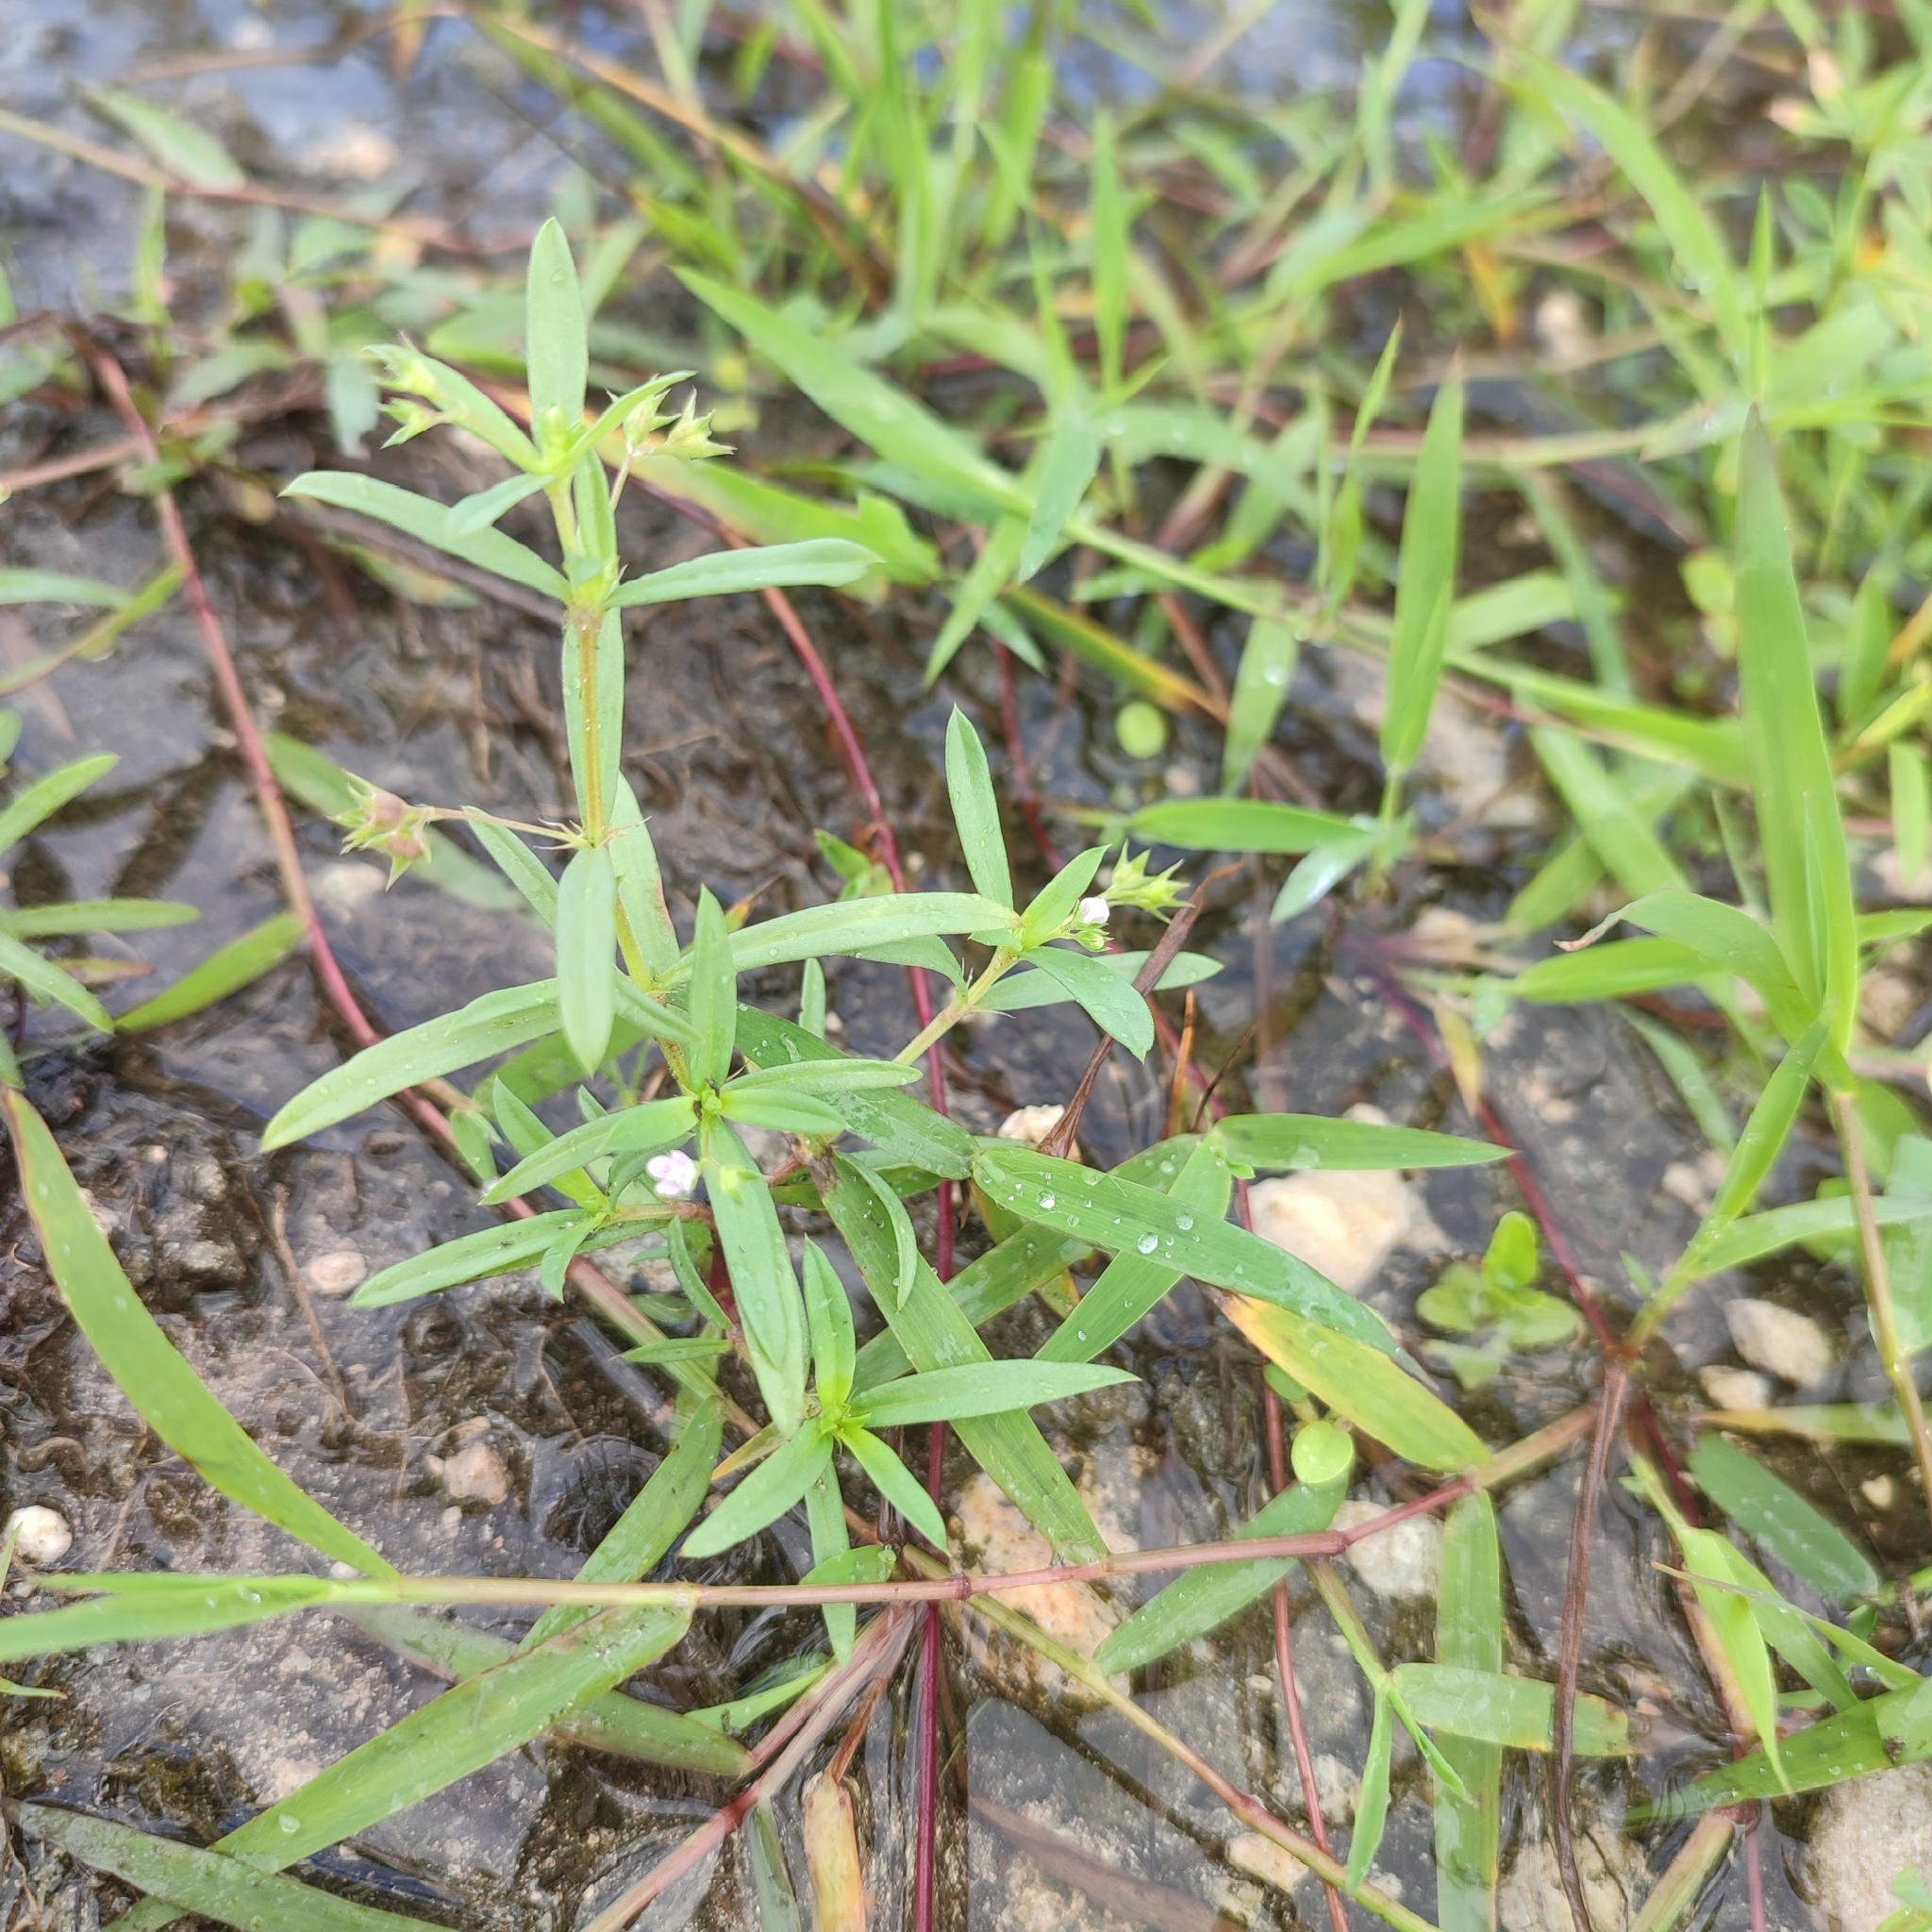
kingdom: Plantae
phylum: Tracheophyta
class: Magnoliopsida
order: Gentianales
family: Rubiaceae
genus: Oldenlandia
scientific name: Oldenlandia corymbosa
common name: Flat-top mille graines
